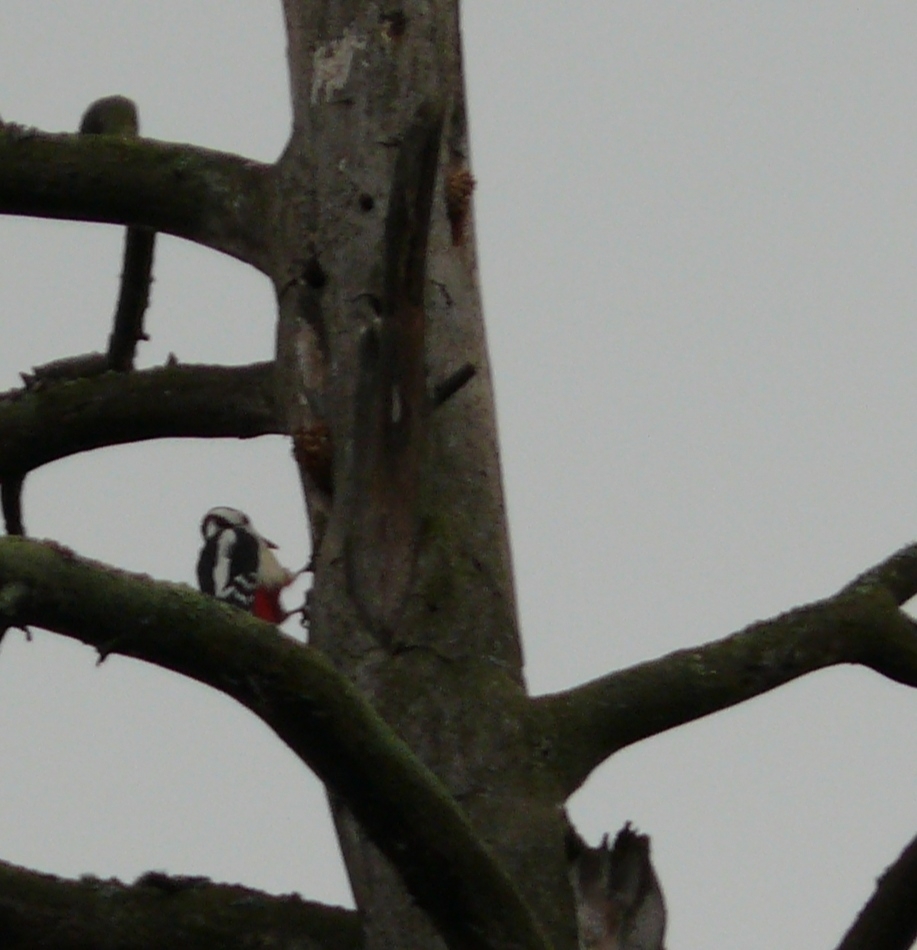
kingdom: Animalia
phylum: Chordata
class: Aves
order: Piciformes
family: Picidae
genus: Dendrocopos
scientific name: Dendrocopos major
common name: Great spotted woodpecker
